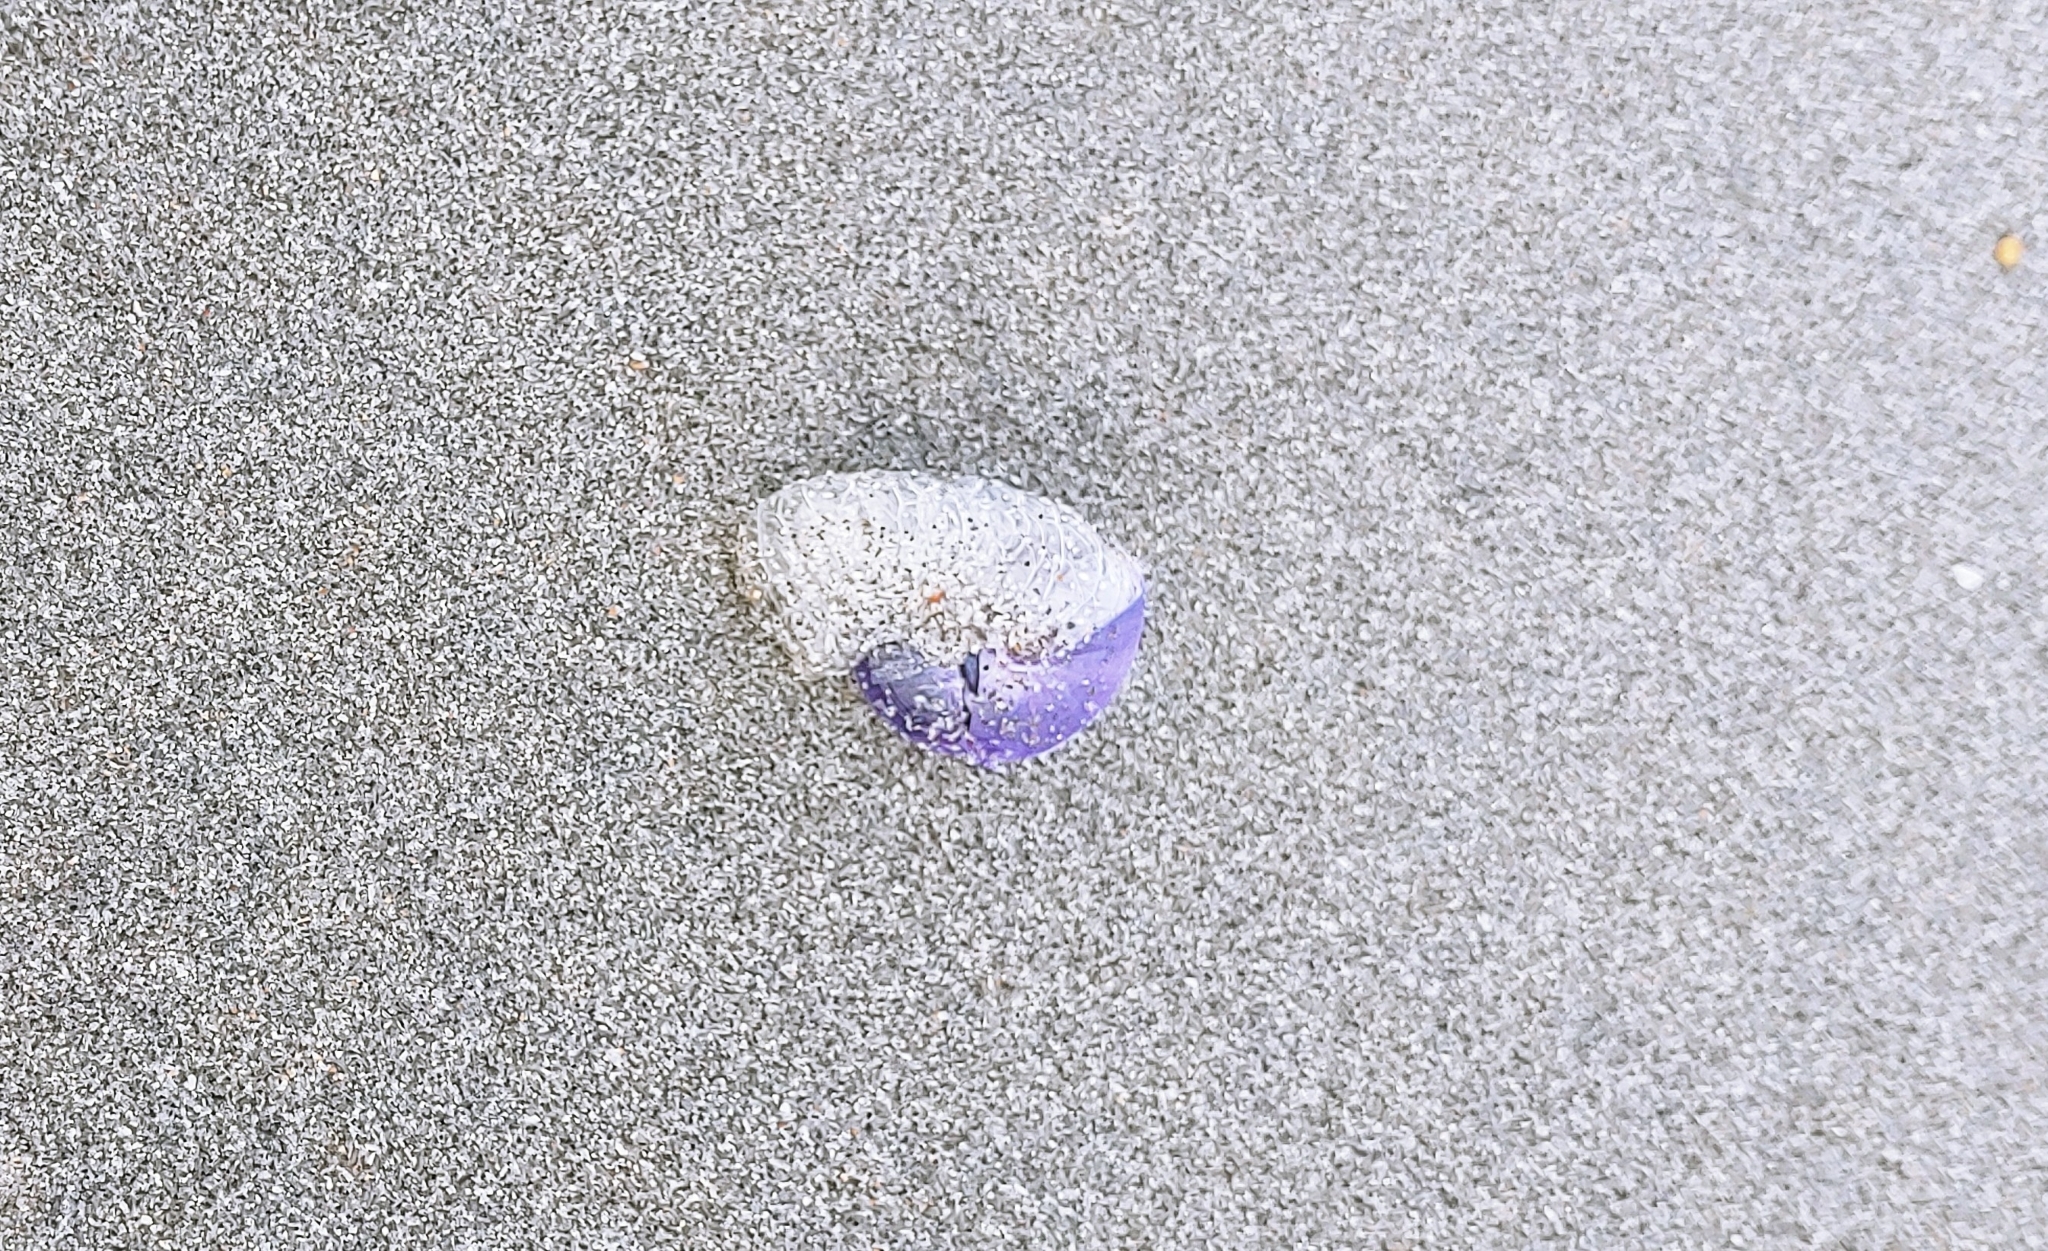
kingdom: Animalia
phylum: Mollusca
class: Gastropoda
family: Epitoniidae
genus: Janthina
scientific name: Janthina janthina
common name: Common janthina
